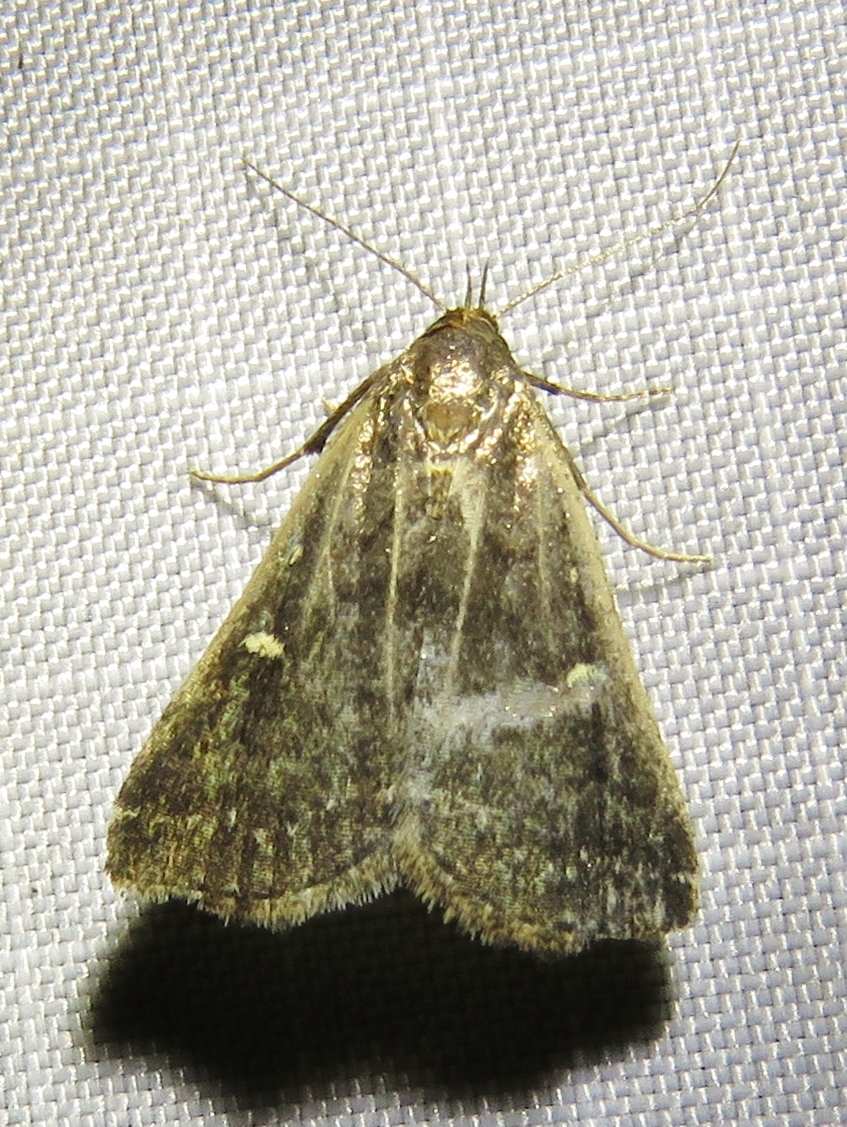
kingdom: Animalia
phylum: Arthropoda
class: Insecta
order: Lepidoptera
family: Erebidae
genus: Tetanolita
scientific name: Tetanolita mynesalis
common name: Smoky tetanolita moth
